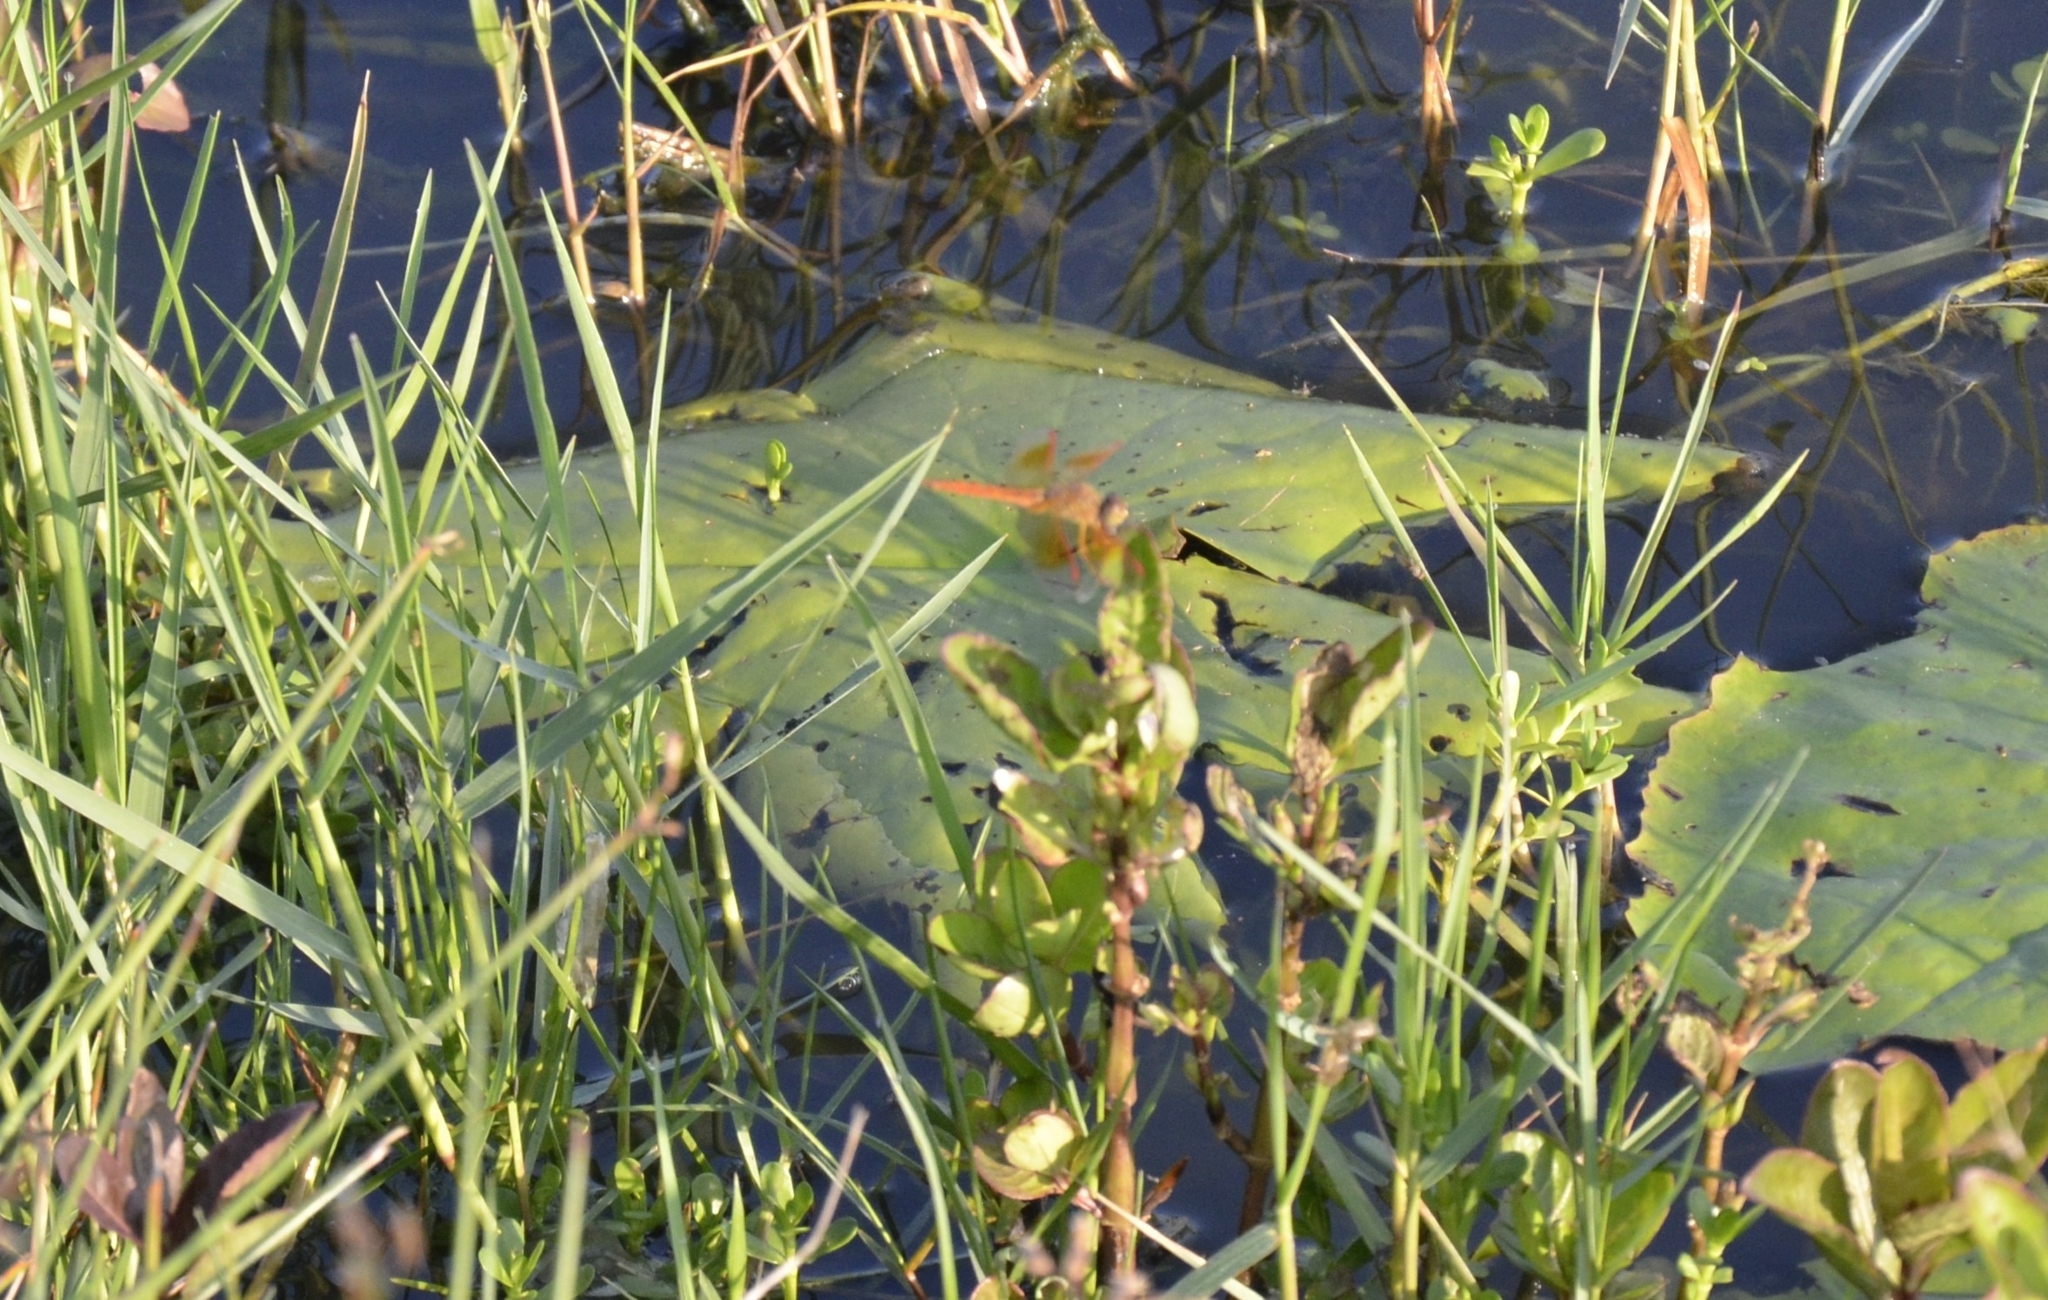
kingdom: Animalia
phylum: Arthropoda
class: Insecta
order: Odonata
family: Libellulidae
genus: Brachythemis
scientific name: Brachythemis contaminata
